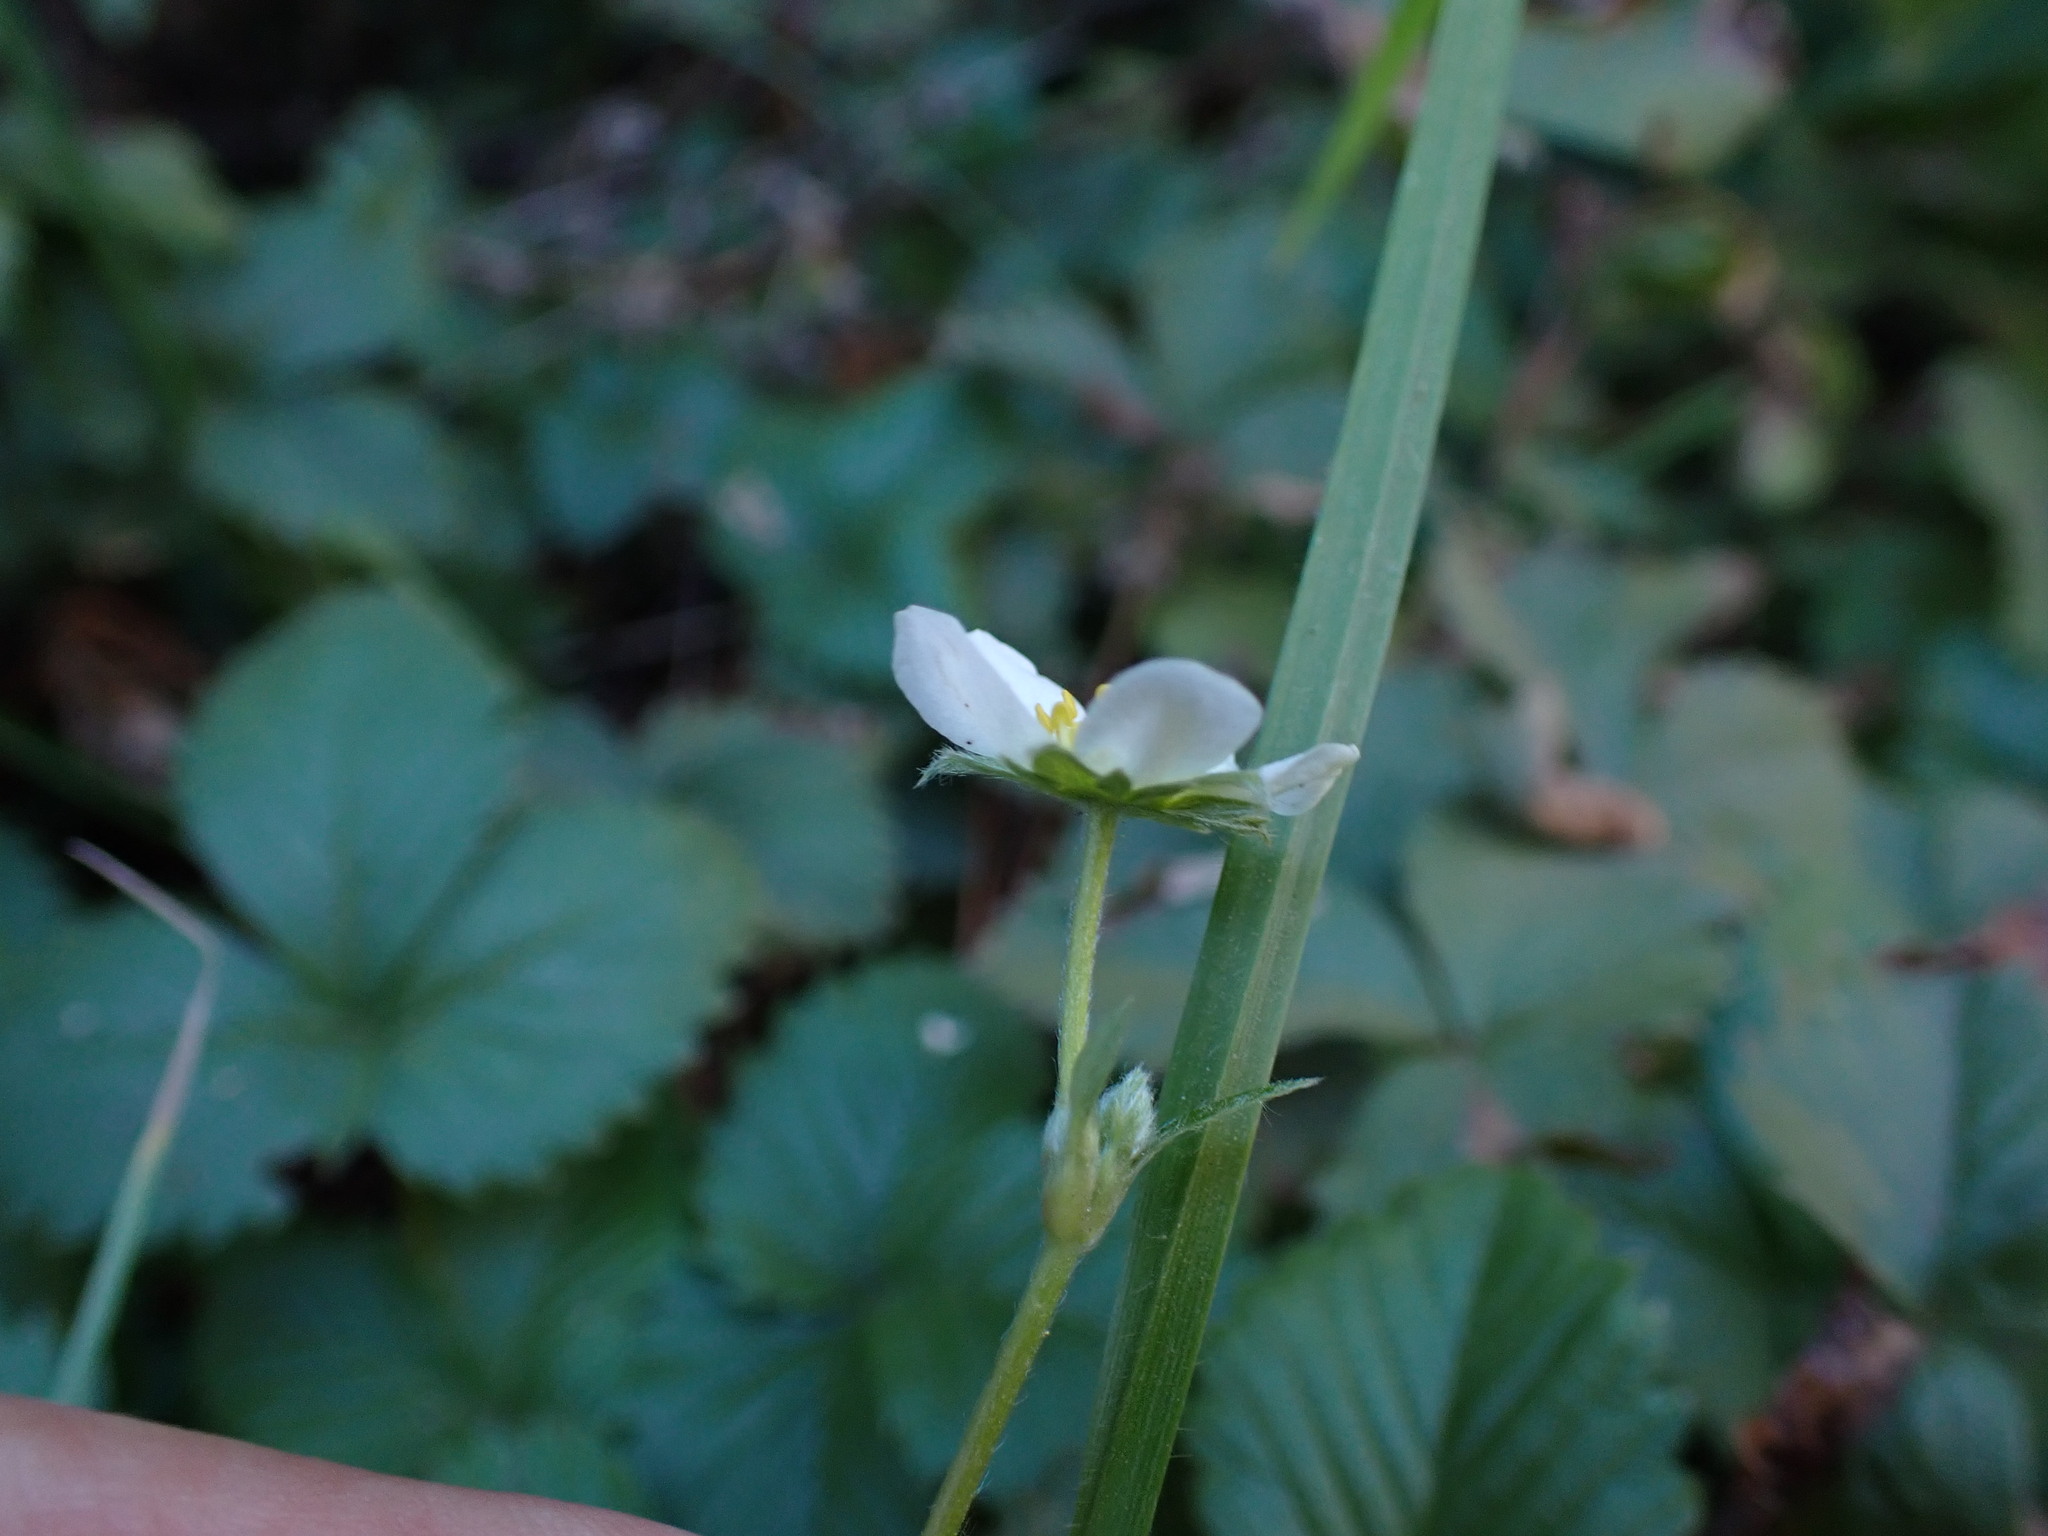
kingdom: Plantae
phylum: Tracheophyta
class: Magnoliopsida
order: Rosales
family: Rosaceae
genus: Fragaria
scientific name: Fragaria vesca
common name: Wild strawberry
